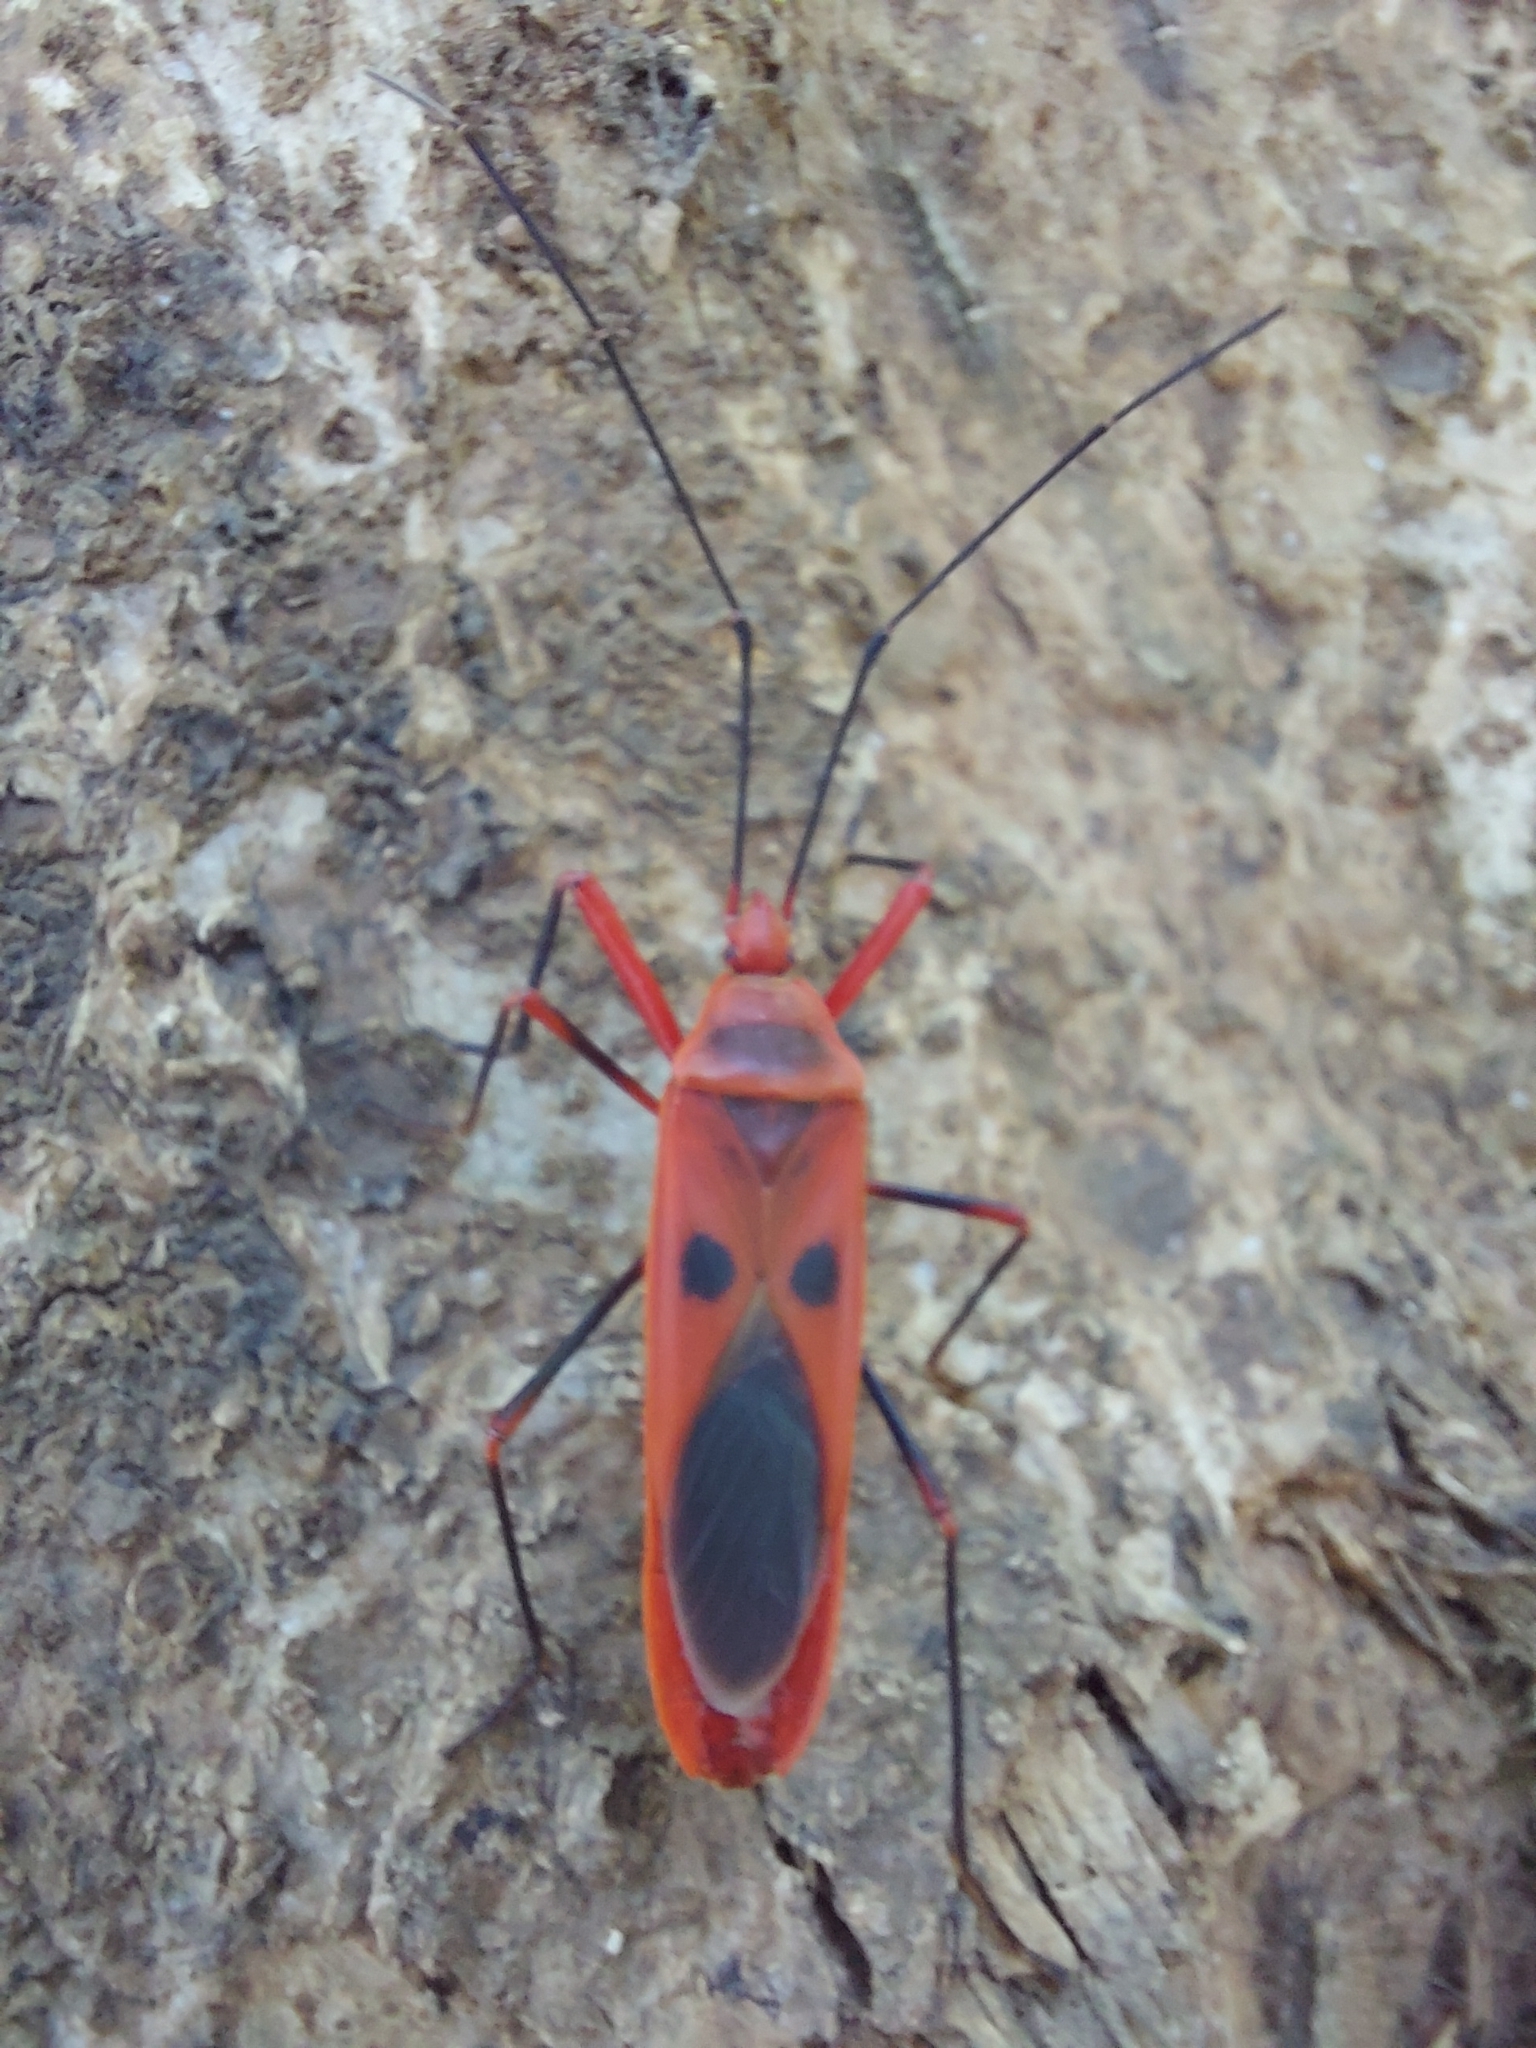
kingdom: Animalia
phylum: Arthropoda
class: Insecta
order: Hemiptera
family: Largidae
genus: Macrocheraia
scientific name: Macrocheraia grandis
